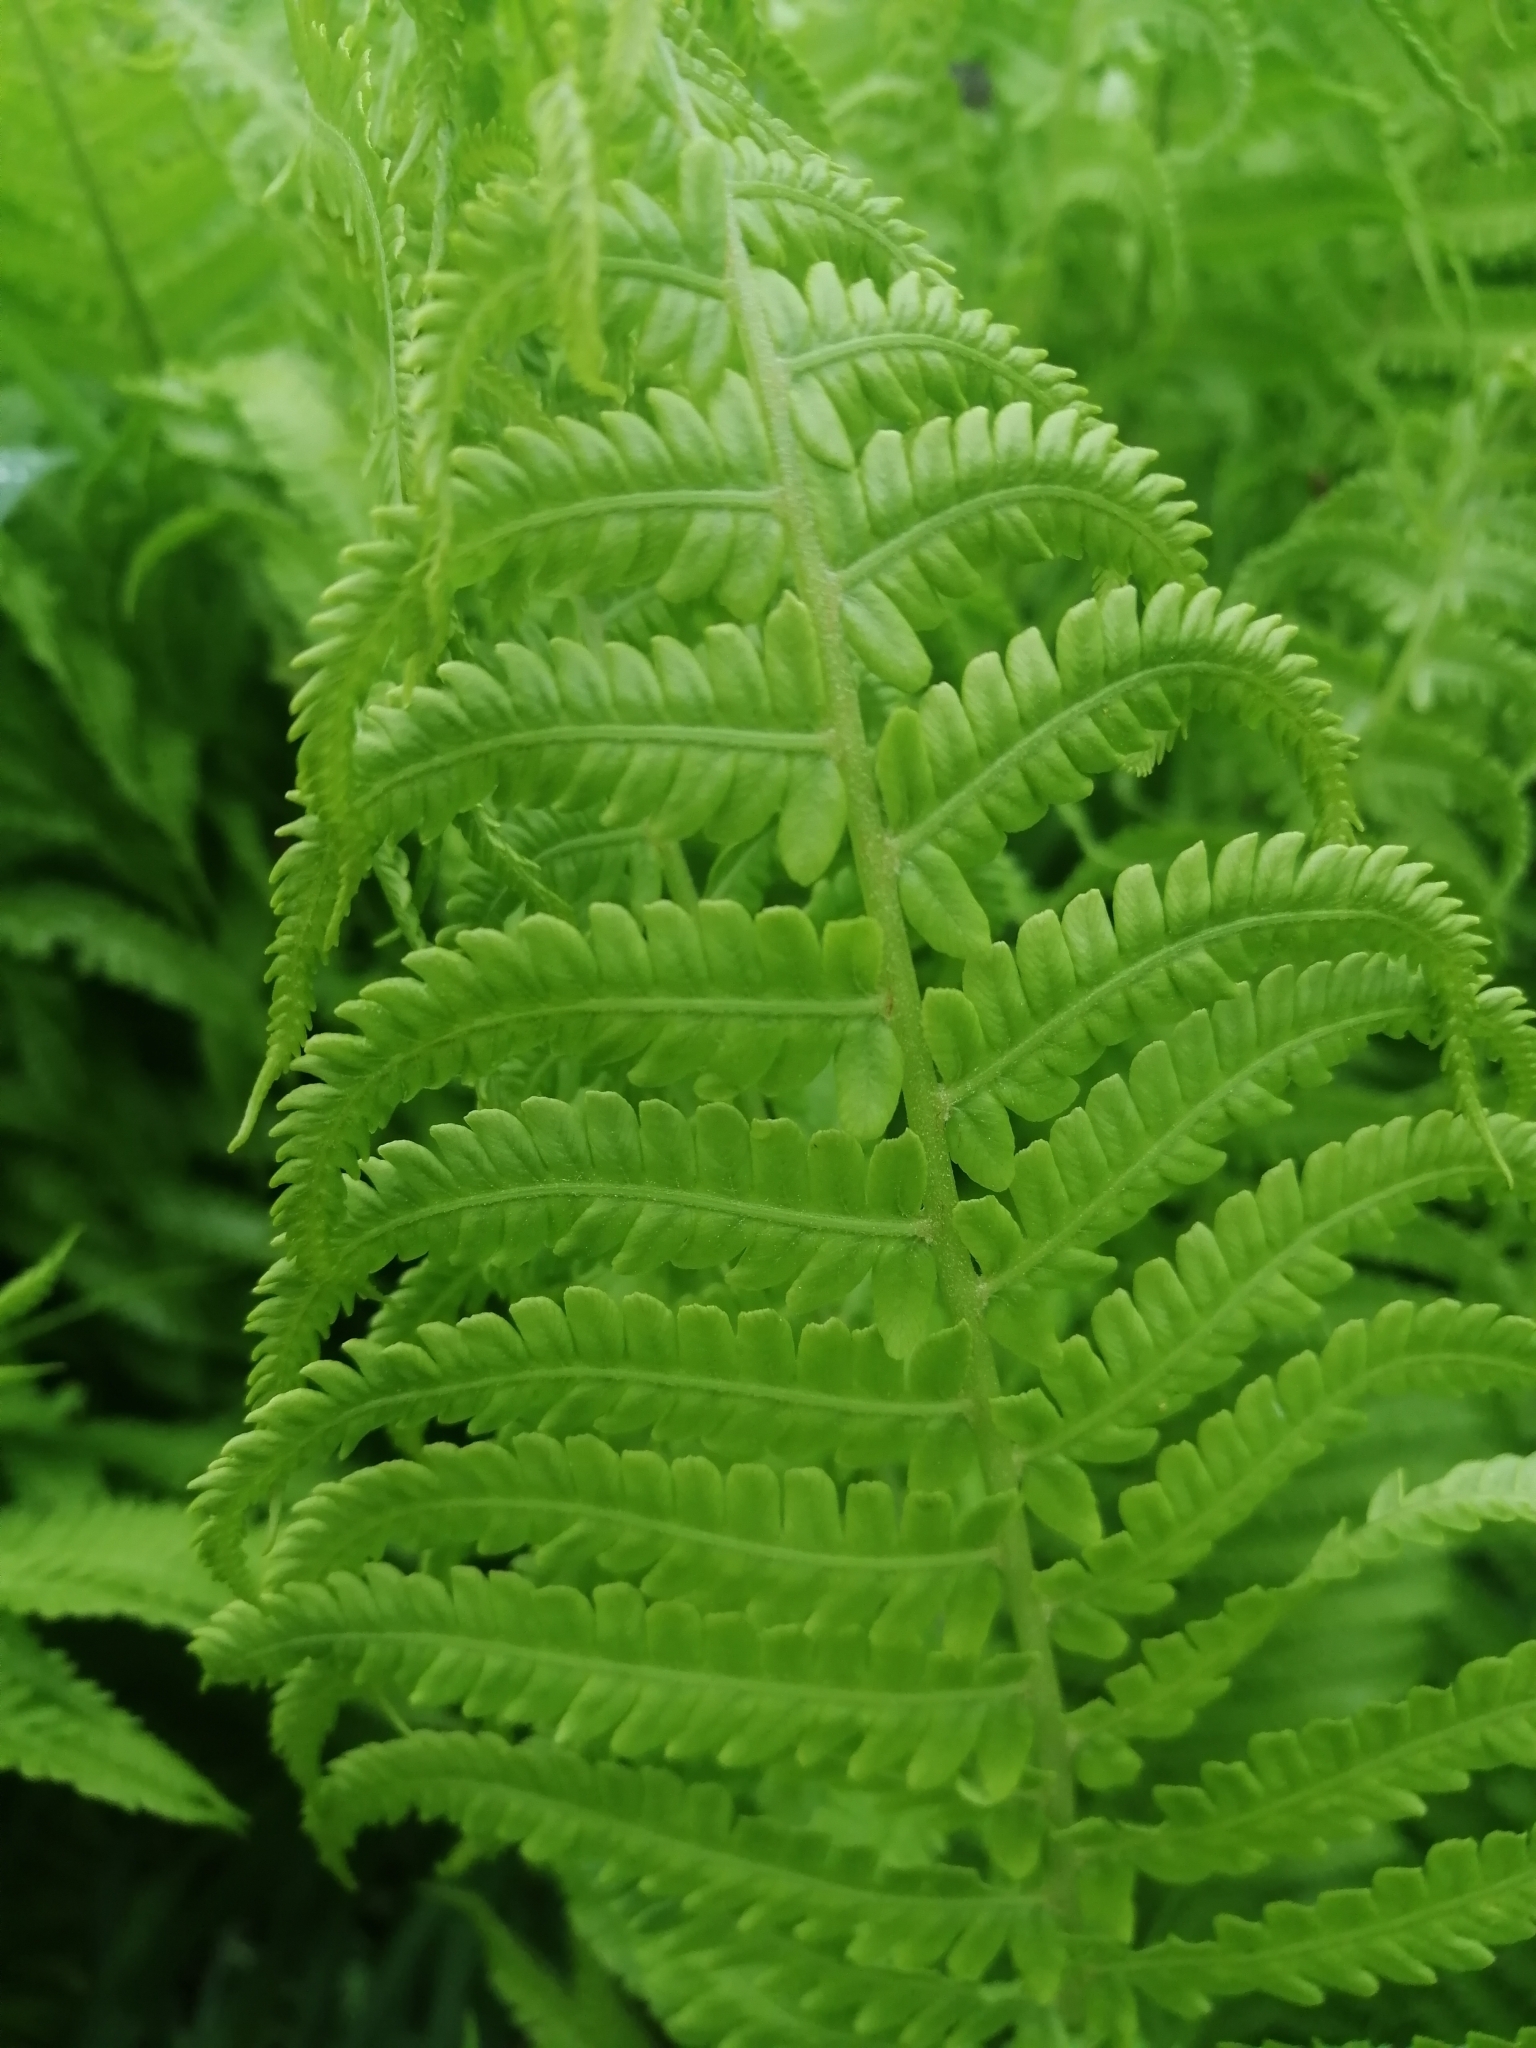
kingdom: Plantae
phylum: Tracheophyta
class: Polypodiopsida
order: Polypodiales
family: Onocleaceae
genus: Matteuccia
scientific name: Matteuccia struthiopteris
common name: Ostrich fern
